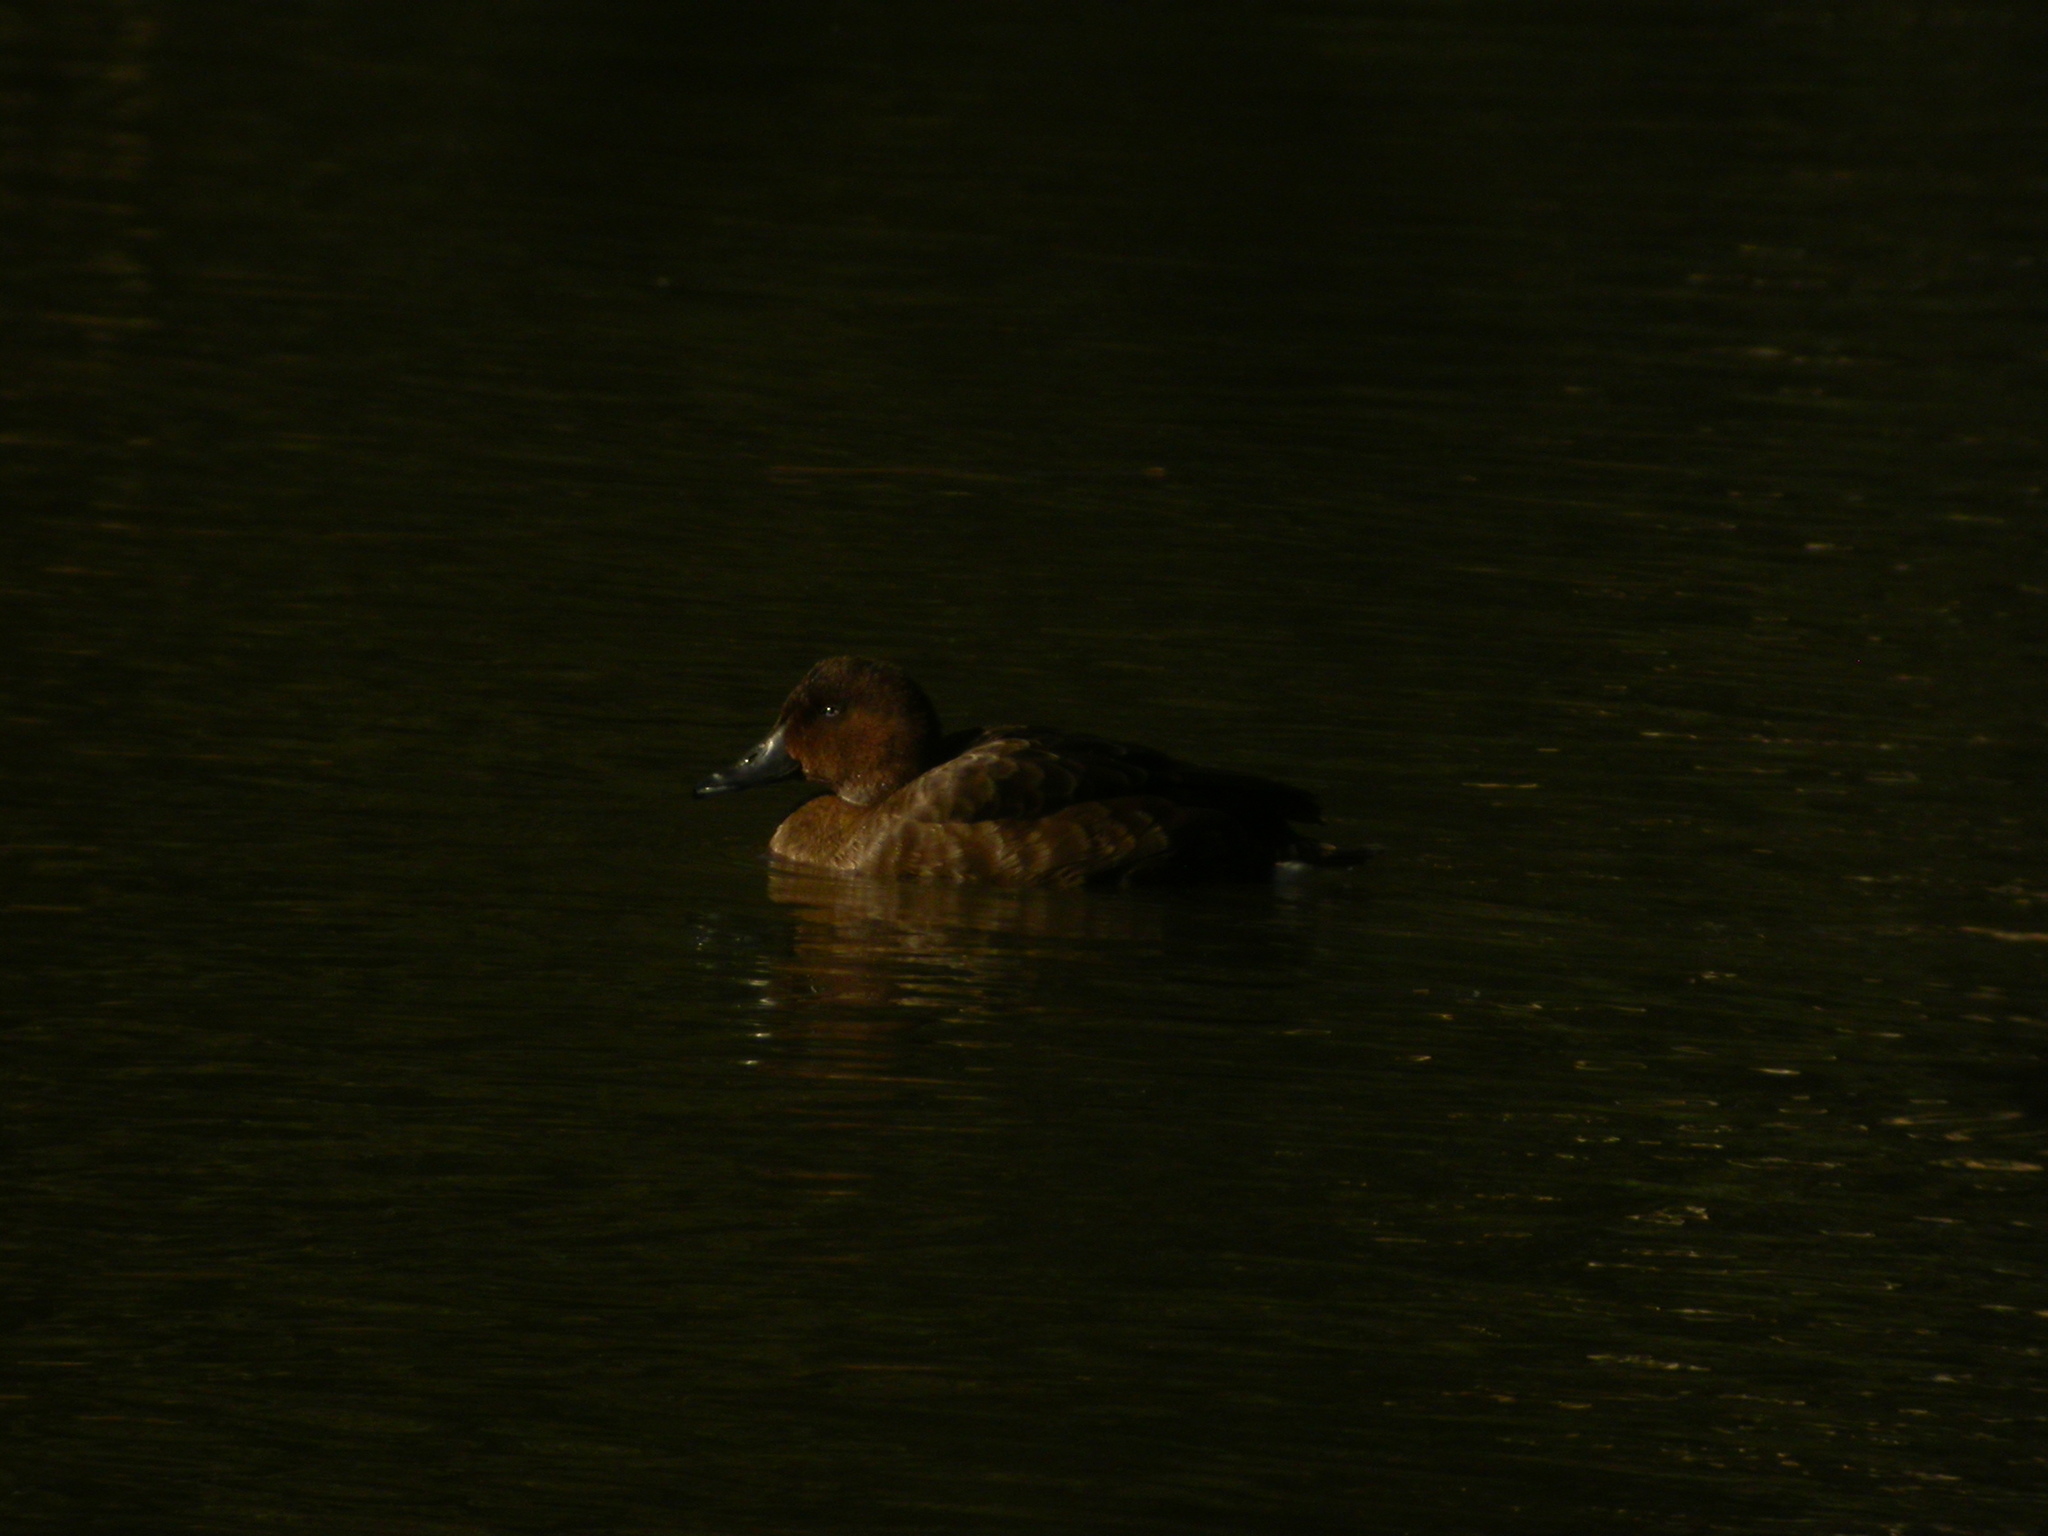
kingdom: Animalia
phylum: Chordata
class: Aves
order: Anseriformes
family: Anatidae
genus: Aythya
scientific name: Aythya australis
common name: Hardhead
